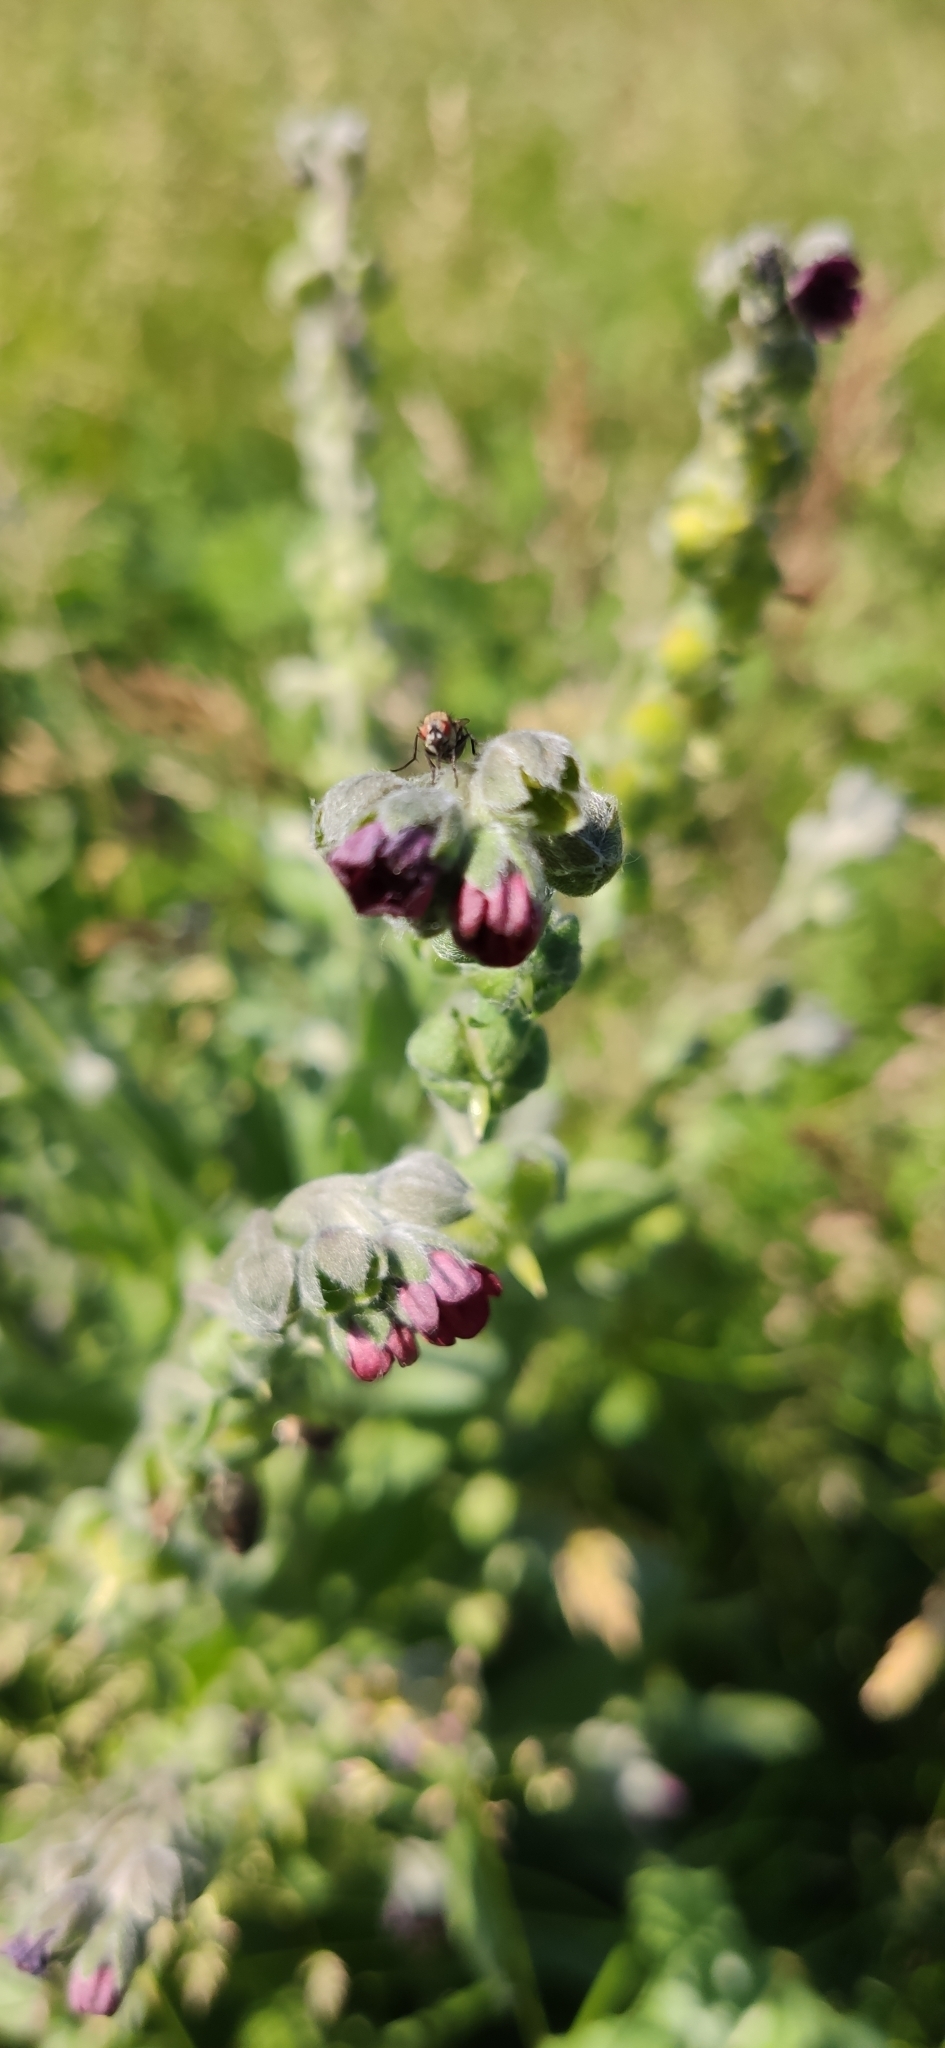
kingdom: Plantae
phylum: Tracheophyta
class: Magnoliopsida
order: Boraginales
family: Boraginaceae
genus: Cynoglossum
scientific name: Cynoglossum officinale
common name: Hound's-tongue
